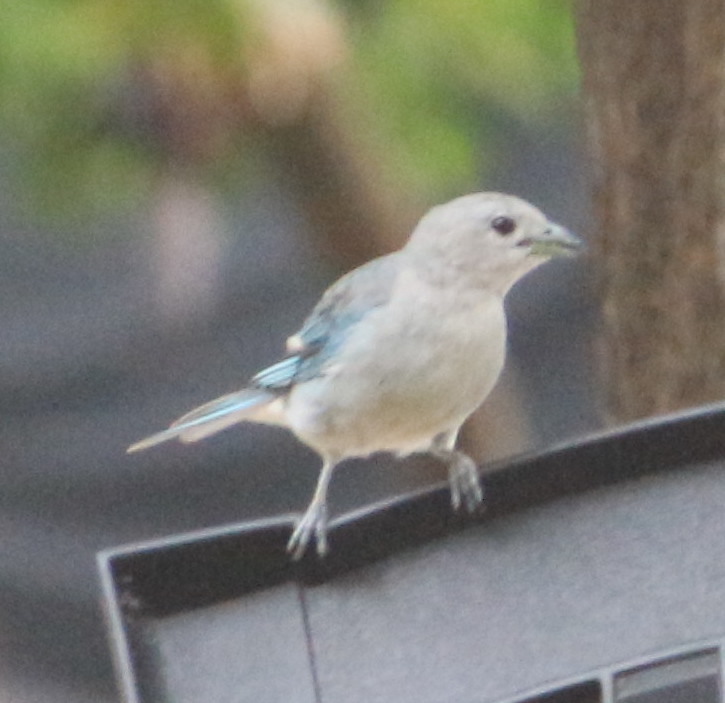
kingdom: Animalia
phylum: Chordata
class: Aves
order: Passeriformes
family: Thraupidae
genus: Thraupis
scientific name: Thraupis sayaca
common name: Sayaca tanager
